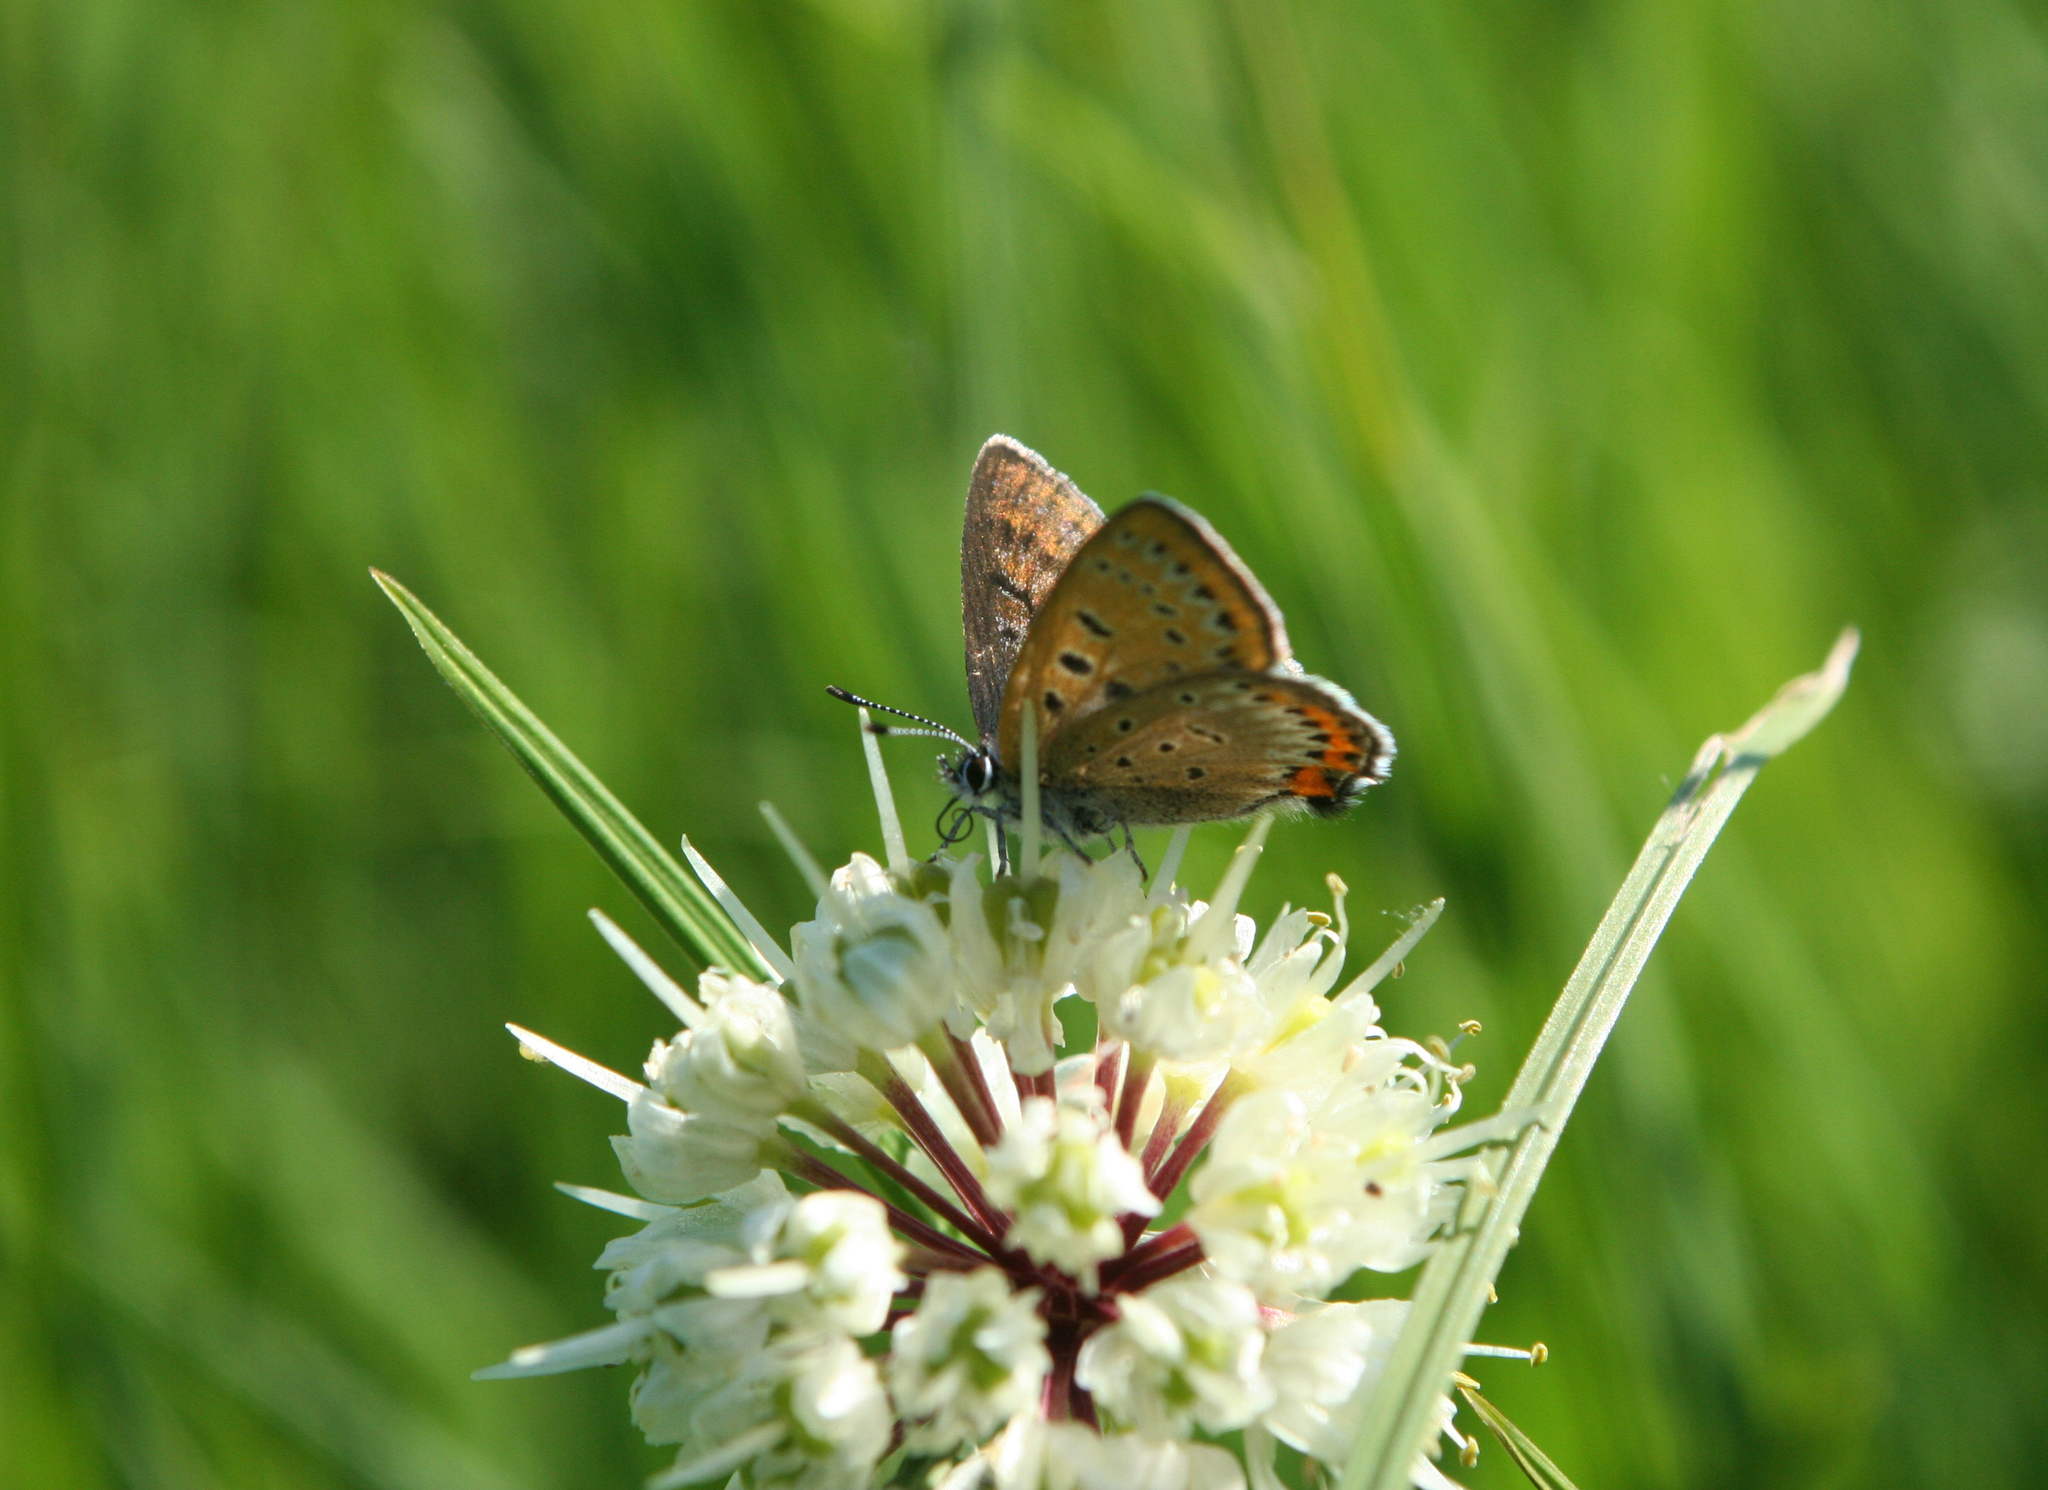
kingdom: Plantae
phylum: Tracheophyta
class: Liliopsida
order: Asparagales
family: Amaryllidaceae
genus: Allium
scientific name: Allium microdictyon
